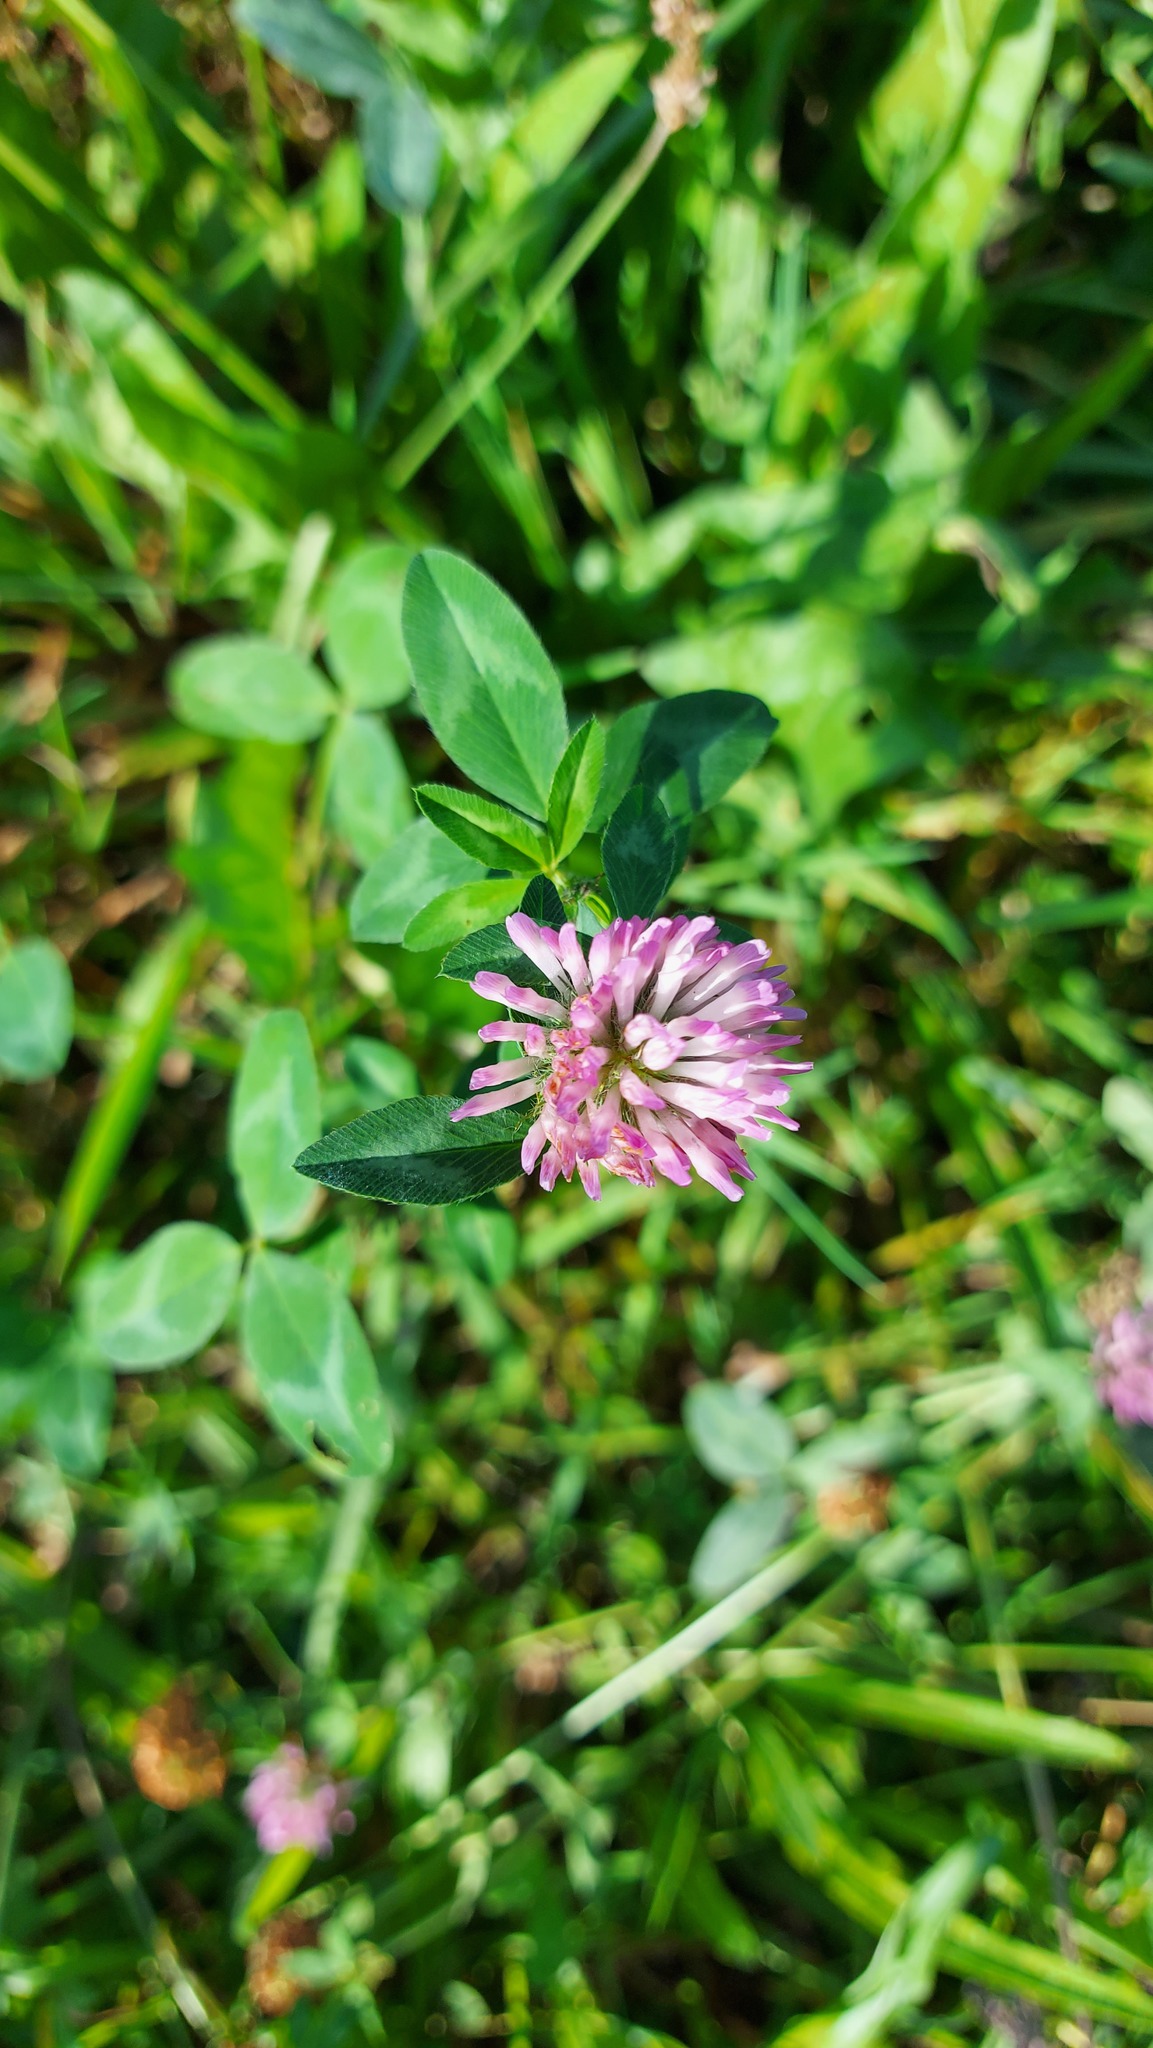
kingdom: Plantae
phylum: Tracheophyta
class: Magnoliopsida
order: Fabales
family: Fabaceae
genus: Trifolium
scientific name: Trifolium pratense
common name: Red clover
